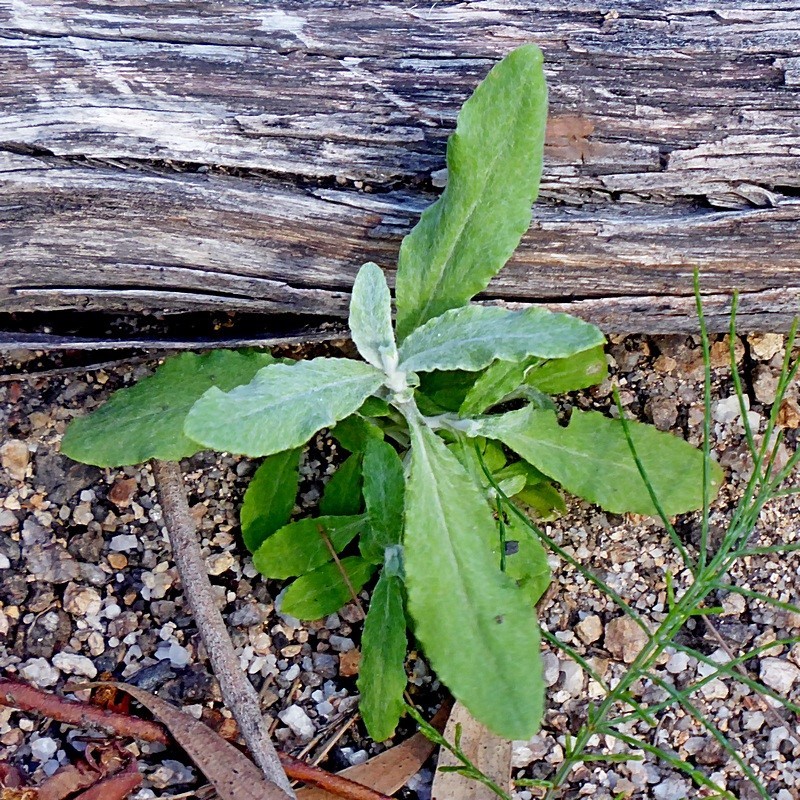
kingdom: Plantae
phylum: Tracheophyta
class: Magnoliopsida
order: Asterales
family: Asteraceae
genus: Ozothamnus
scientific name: Ozothamnus argophyllus
